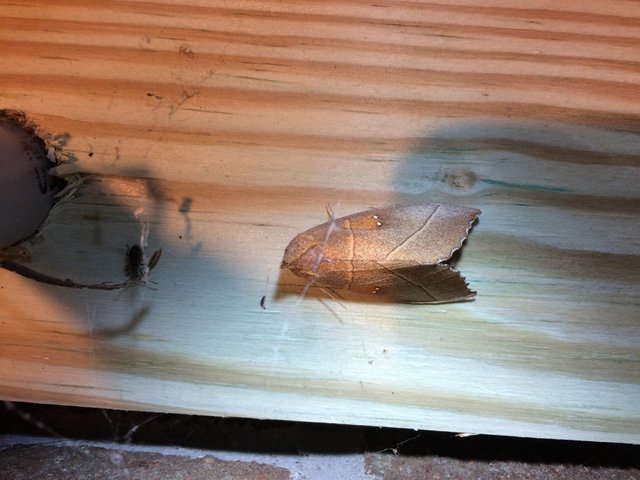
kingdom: Animalia
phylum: Arthropoda
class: Insecta
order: Lepidoptera
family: Notodontidae
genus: Nadata
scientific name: Nadata gibbosa
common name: White-dotted prominent
